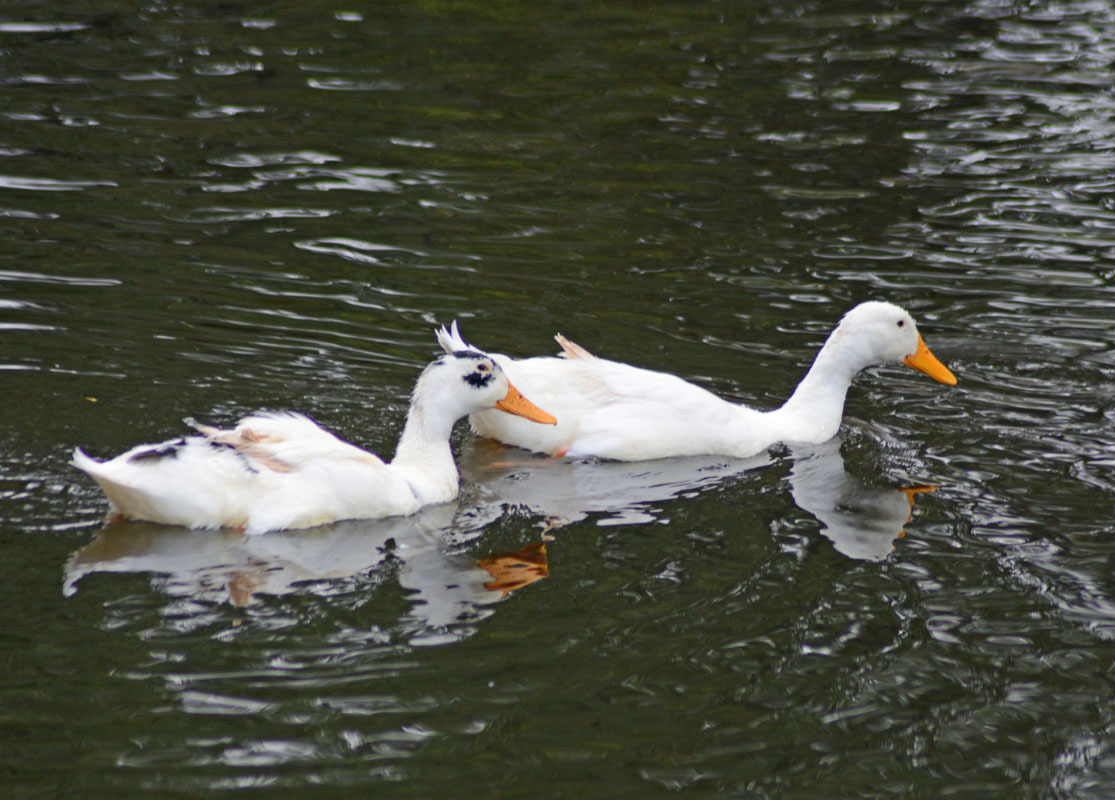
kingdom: Animalia
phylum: Chordata
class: Aves
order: Anseriformes
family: Anatidae
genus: Anas
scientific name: Anas platyrhynchos
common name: Mallard
